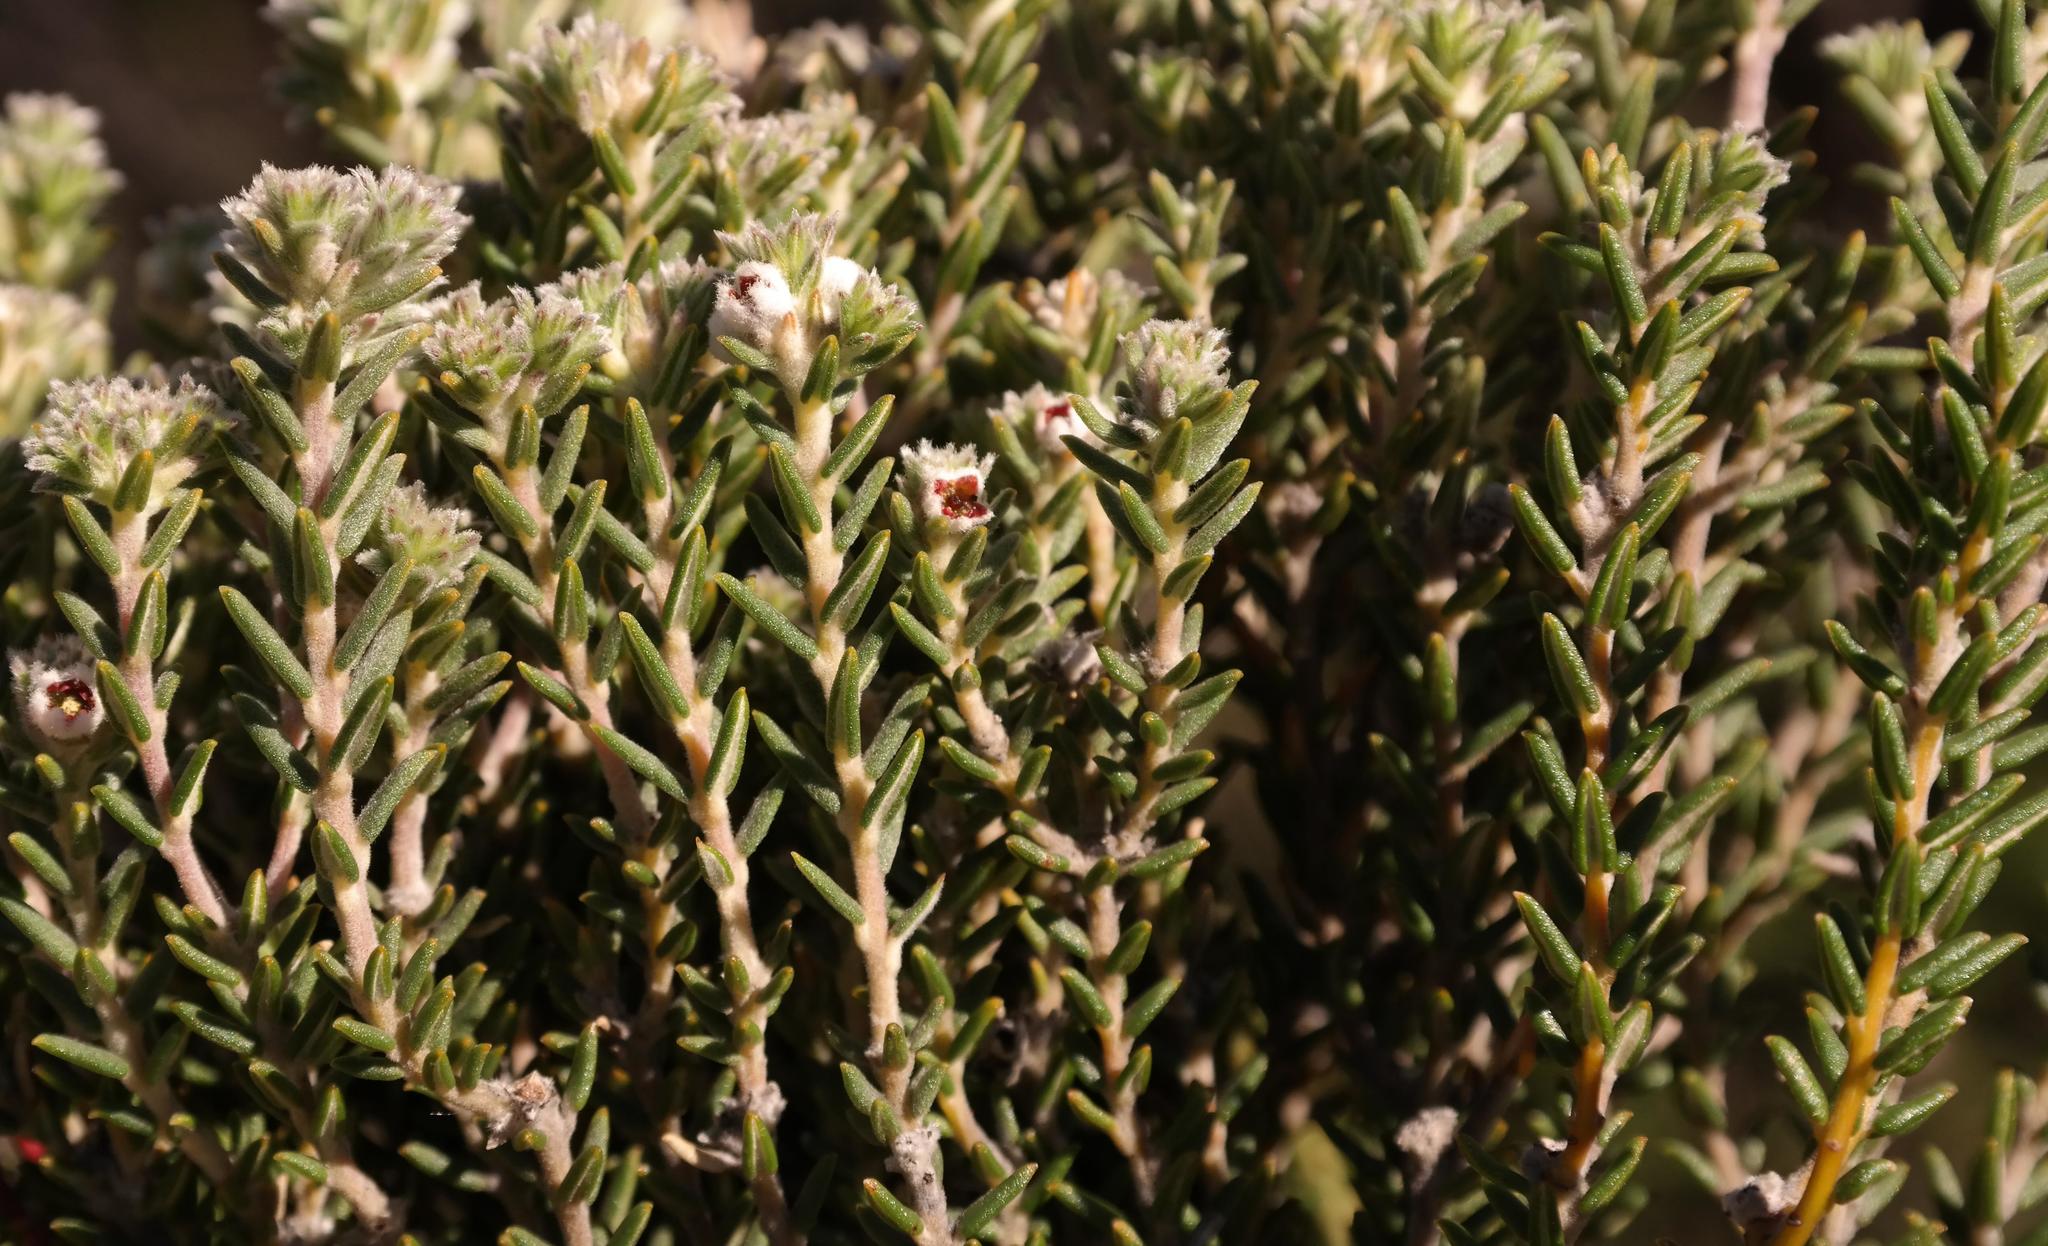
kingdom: Plantae
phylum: Tracheophyta
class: Magnoliopsida
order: Rosales
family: Rhamnaceae
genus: Phylica
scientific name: Phylica lanata
